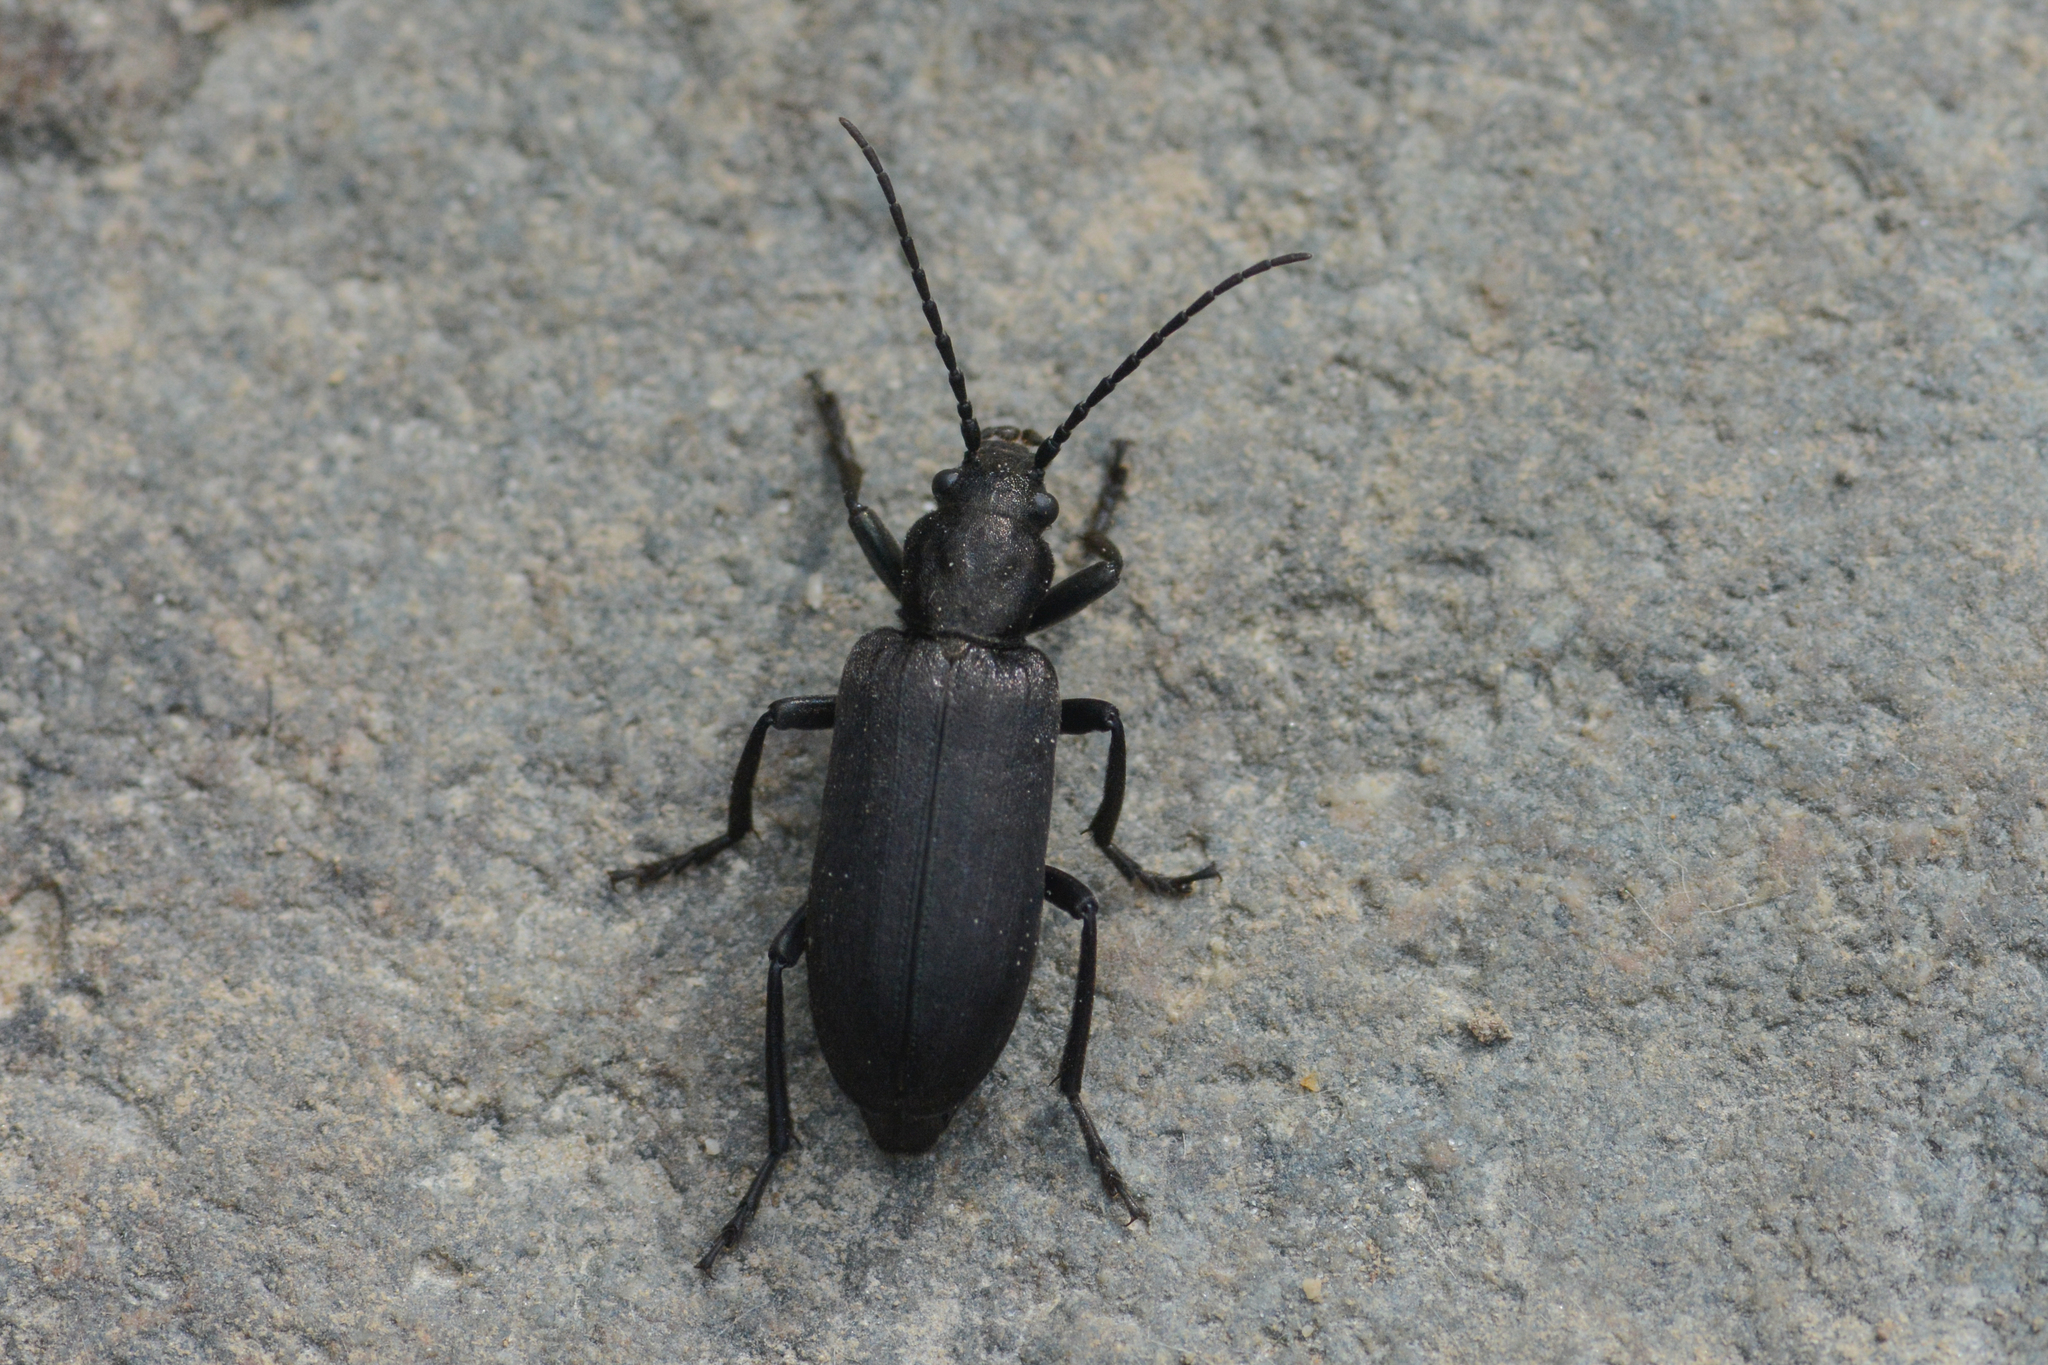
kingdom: Animalia
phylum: Arthropoda
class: Insecta
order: Coleoptera
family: Oedemeridae
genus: Ditylus
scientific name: Ditylus quadricollis
